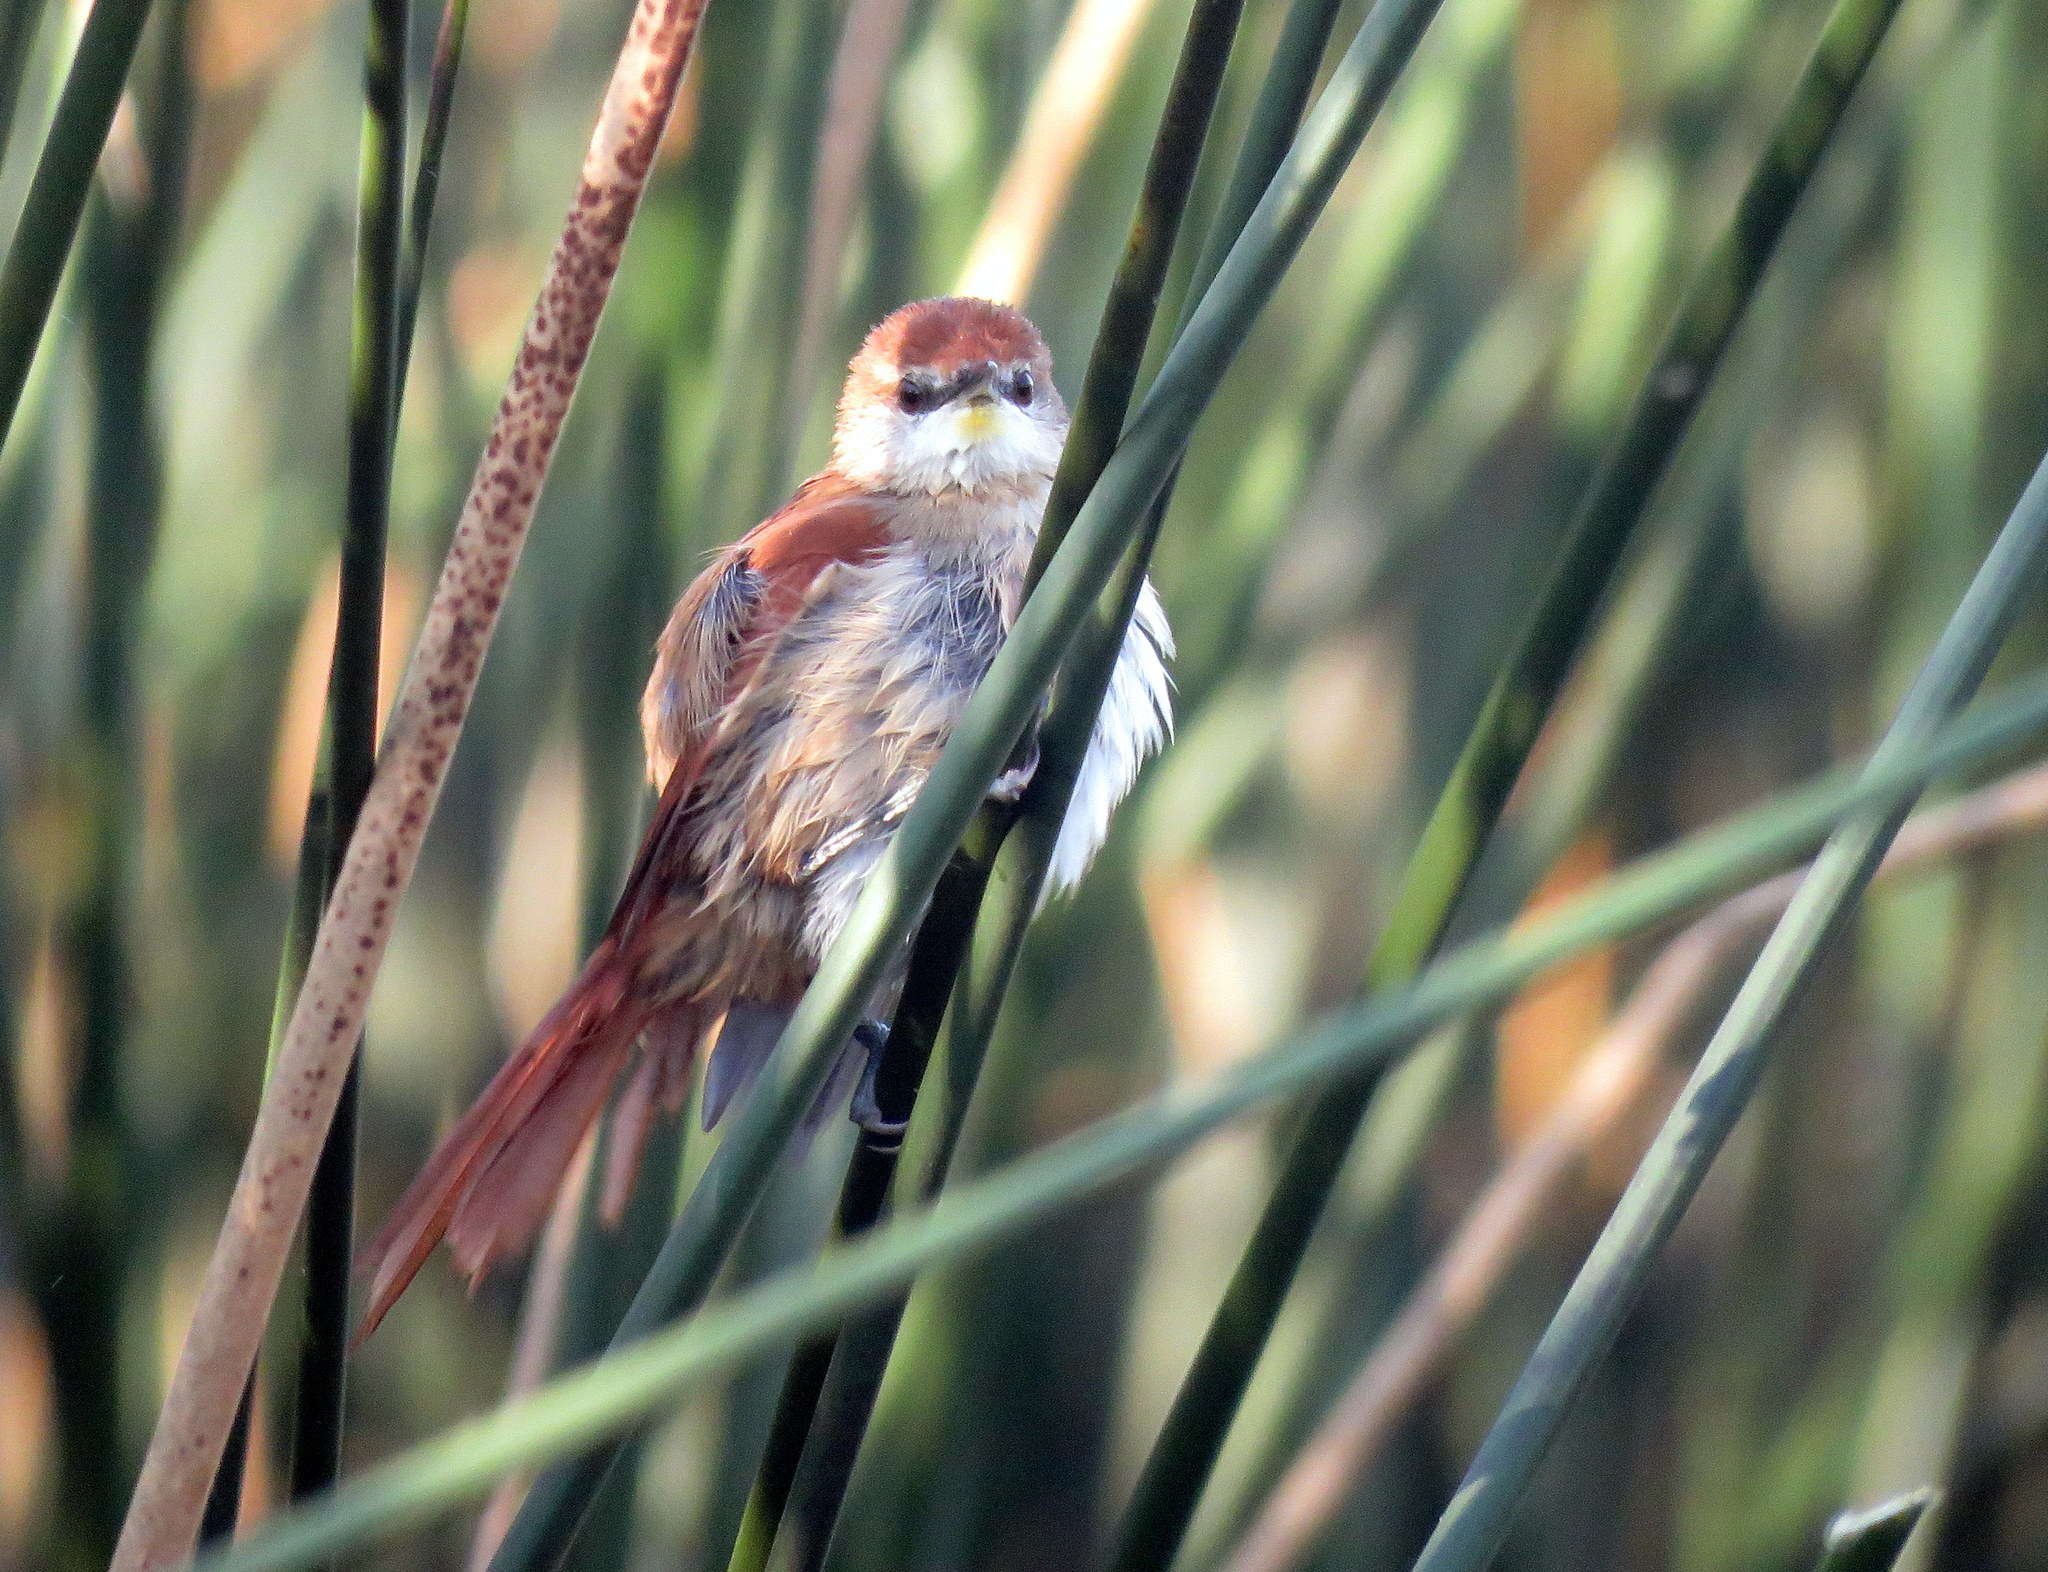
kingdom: Animalia
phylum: Chordata
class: Aves
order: Passeriformes
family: Furnariidae
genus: Certhiaxis
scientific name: Certhiaxis cinnamomeus
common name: Yellow-chinned spinetail
